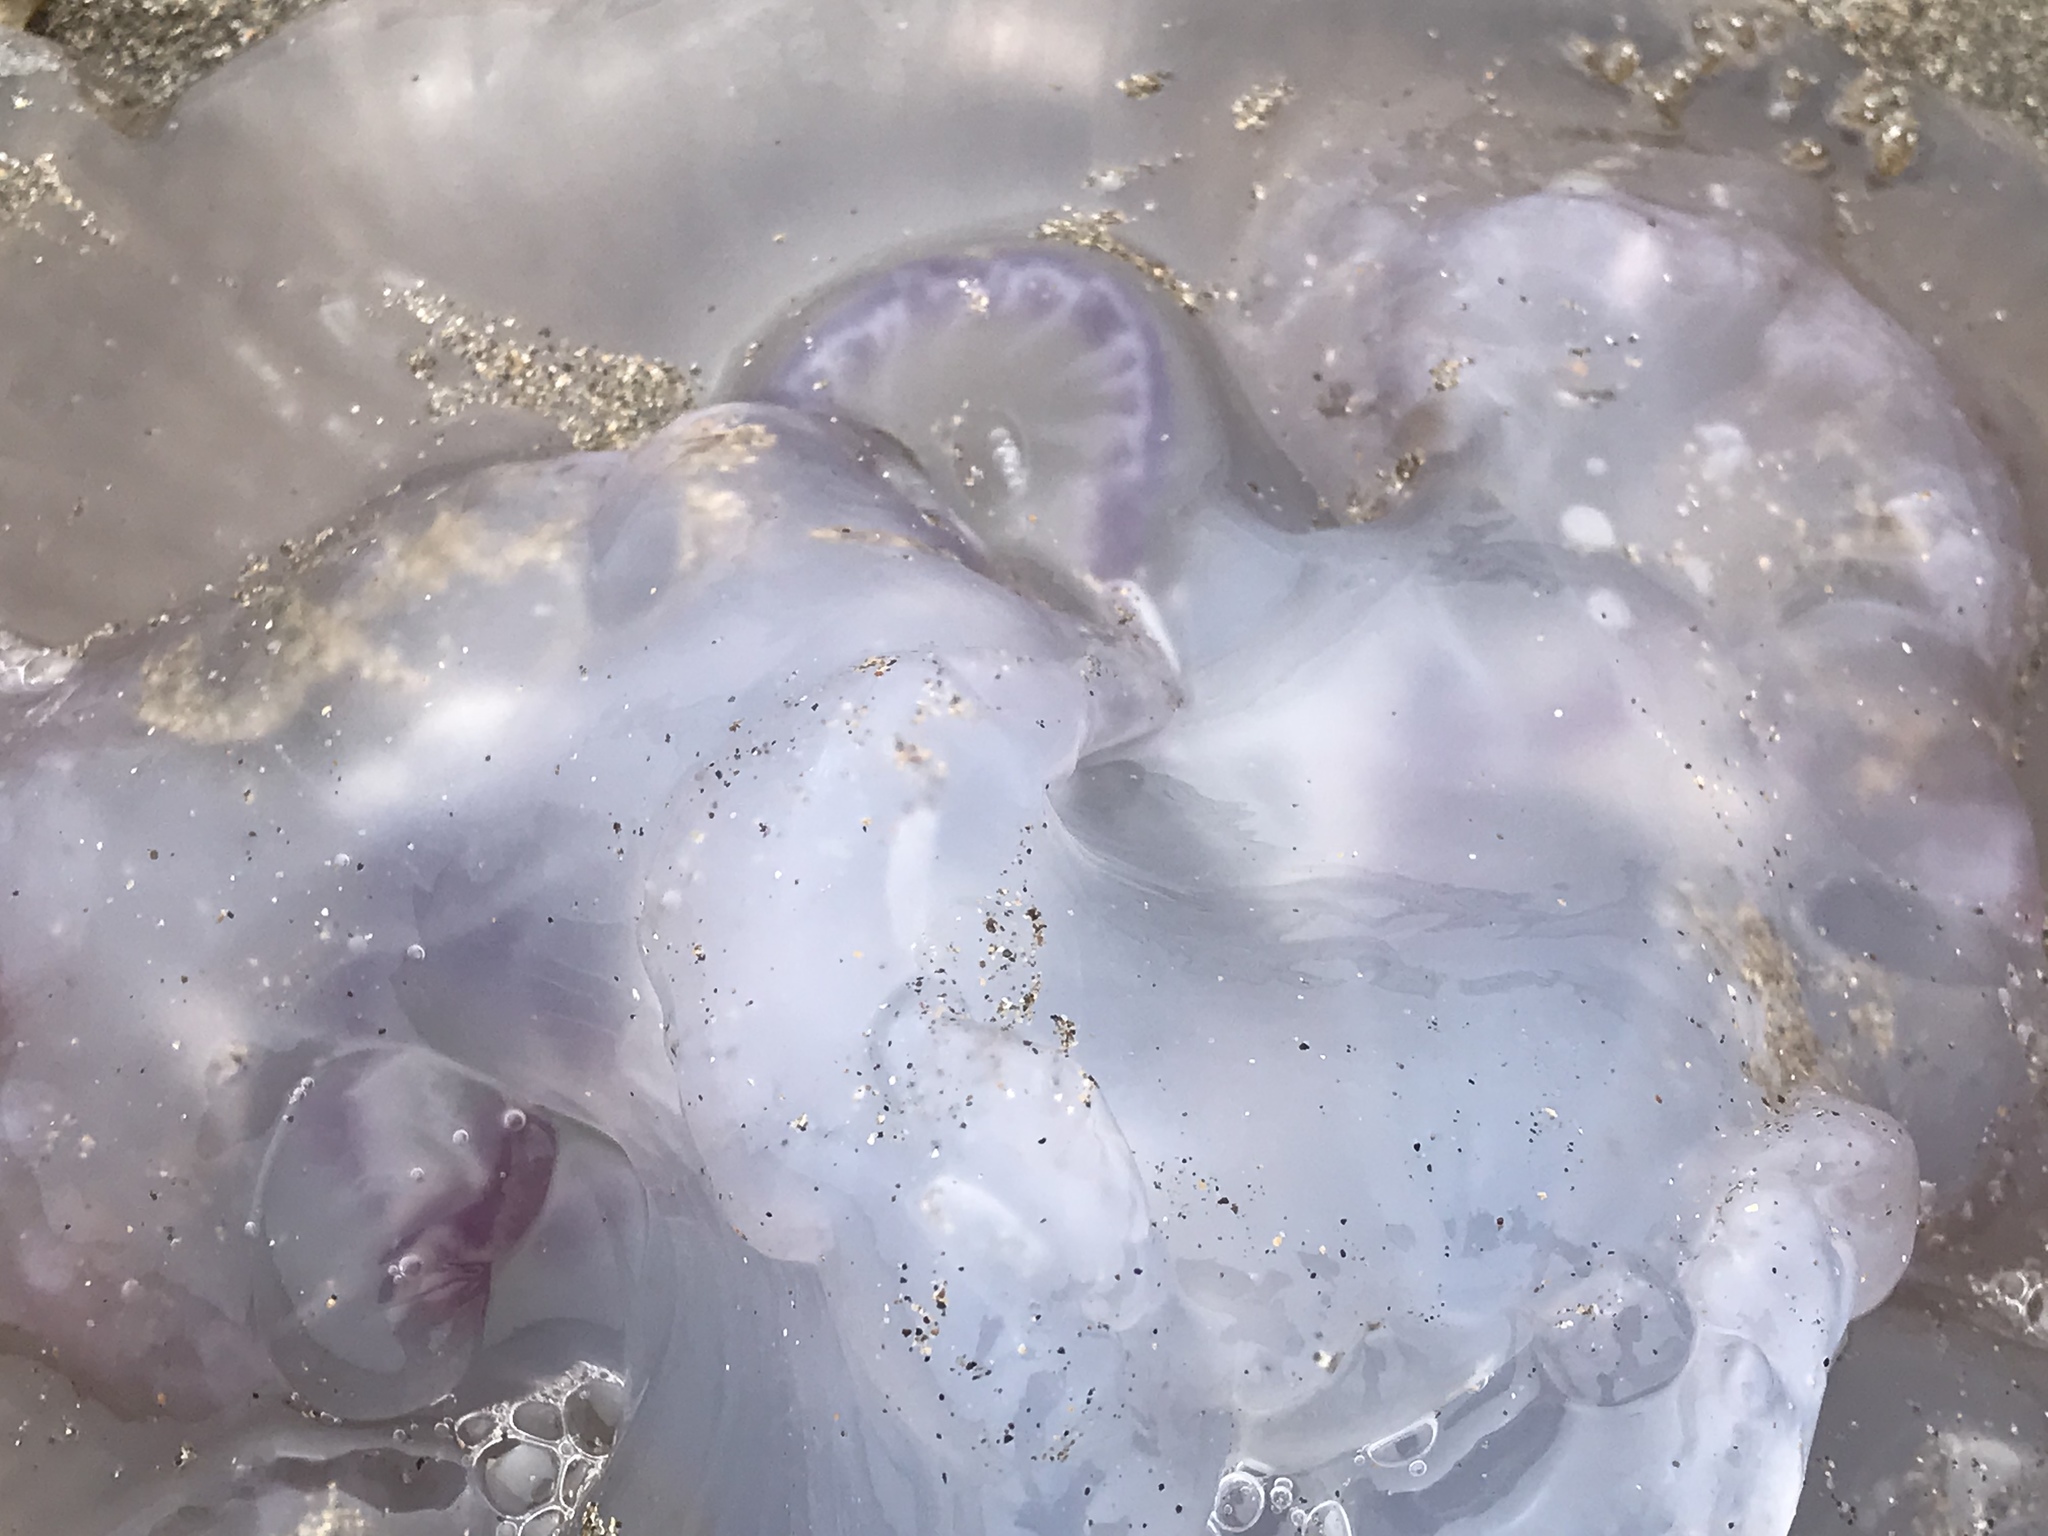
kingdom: Animalia
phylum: Cnidaria
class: Scyphozoa
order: Semaeostomeae
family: Ulmaridae
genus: Aurelia
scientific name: Aurelia labiata
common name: Pacific moon jelly
